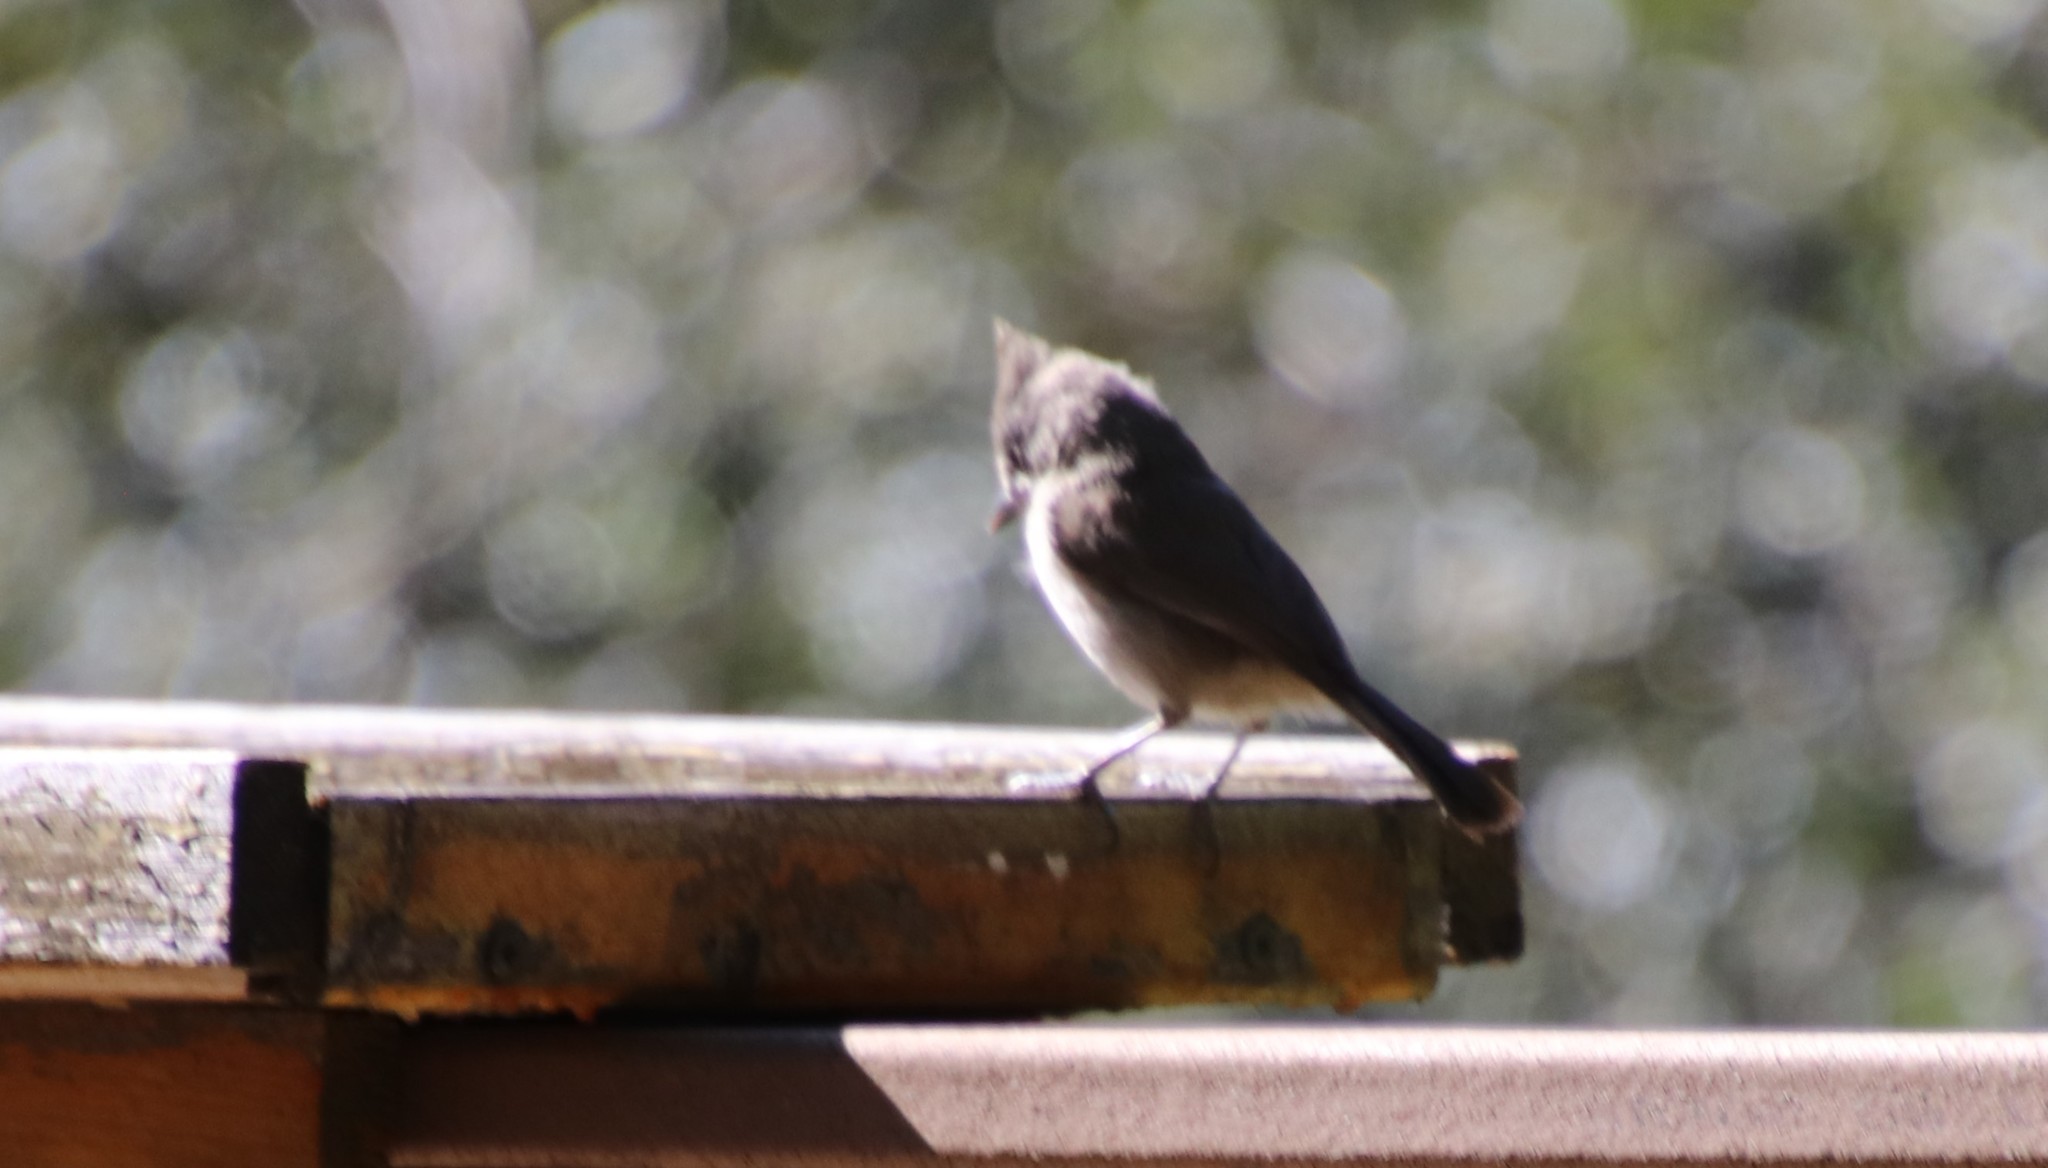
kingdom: Animalia
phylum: Chordata
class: Aves
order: Passeriformes
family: Paridae
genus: Baeolophus
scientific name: Baeolophus inornatus
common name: Oak titmouse
